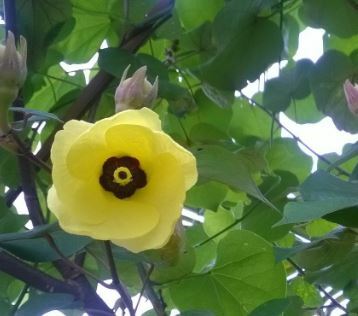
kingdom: Plantae
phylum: Tracheophyta
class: Magnoliopsida
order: Malvales
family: Malvaceae
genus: Talipariti
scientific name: Talipariti tiliaceum
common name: Sea hibiscus
